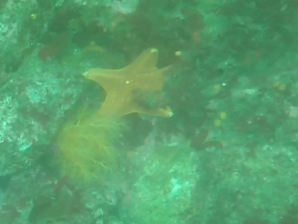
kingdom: Animalia
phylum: Echinodermata
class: Asteroidea
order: Valvatida
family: Asterinidae
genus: Patiria
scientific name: Patiria miniata
